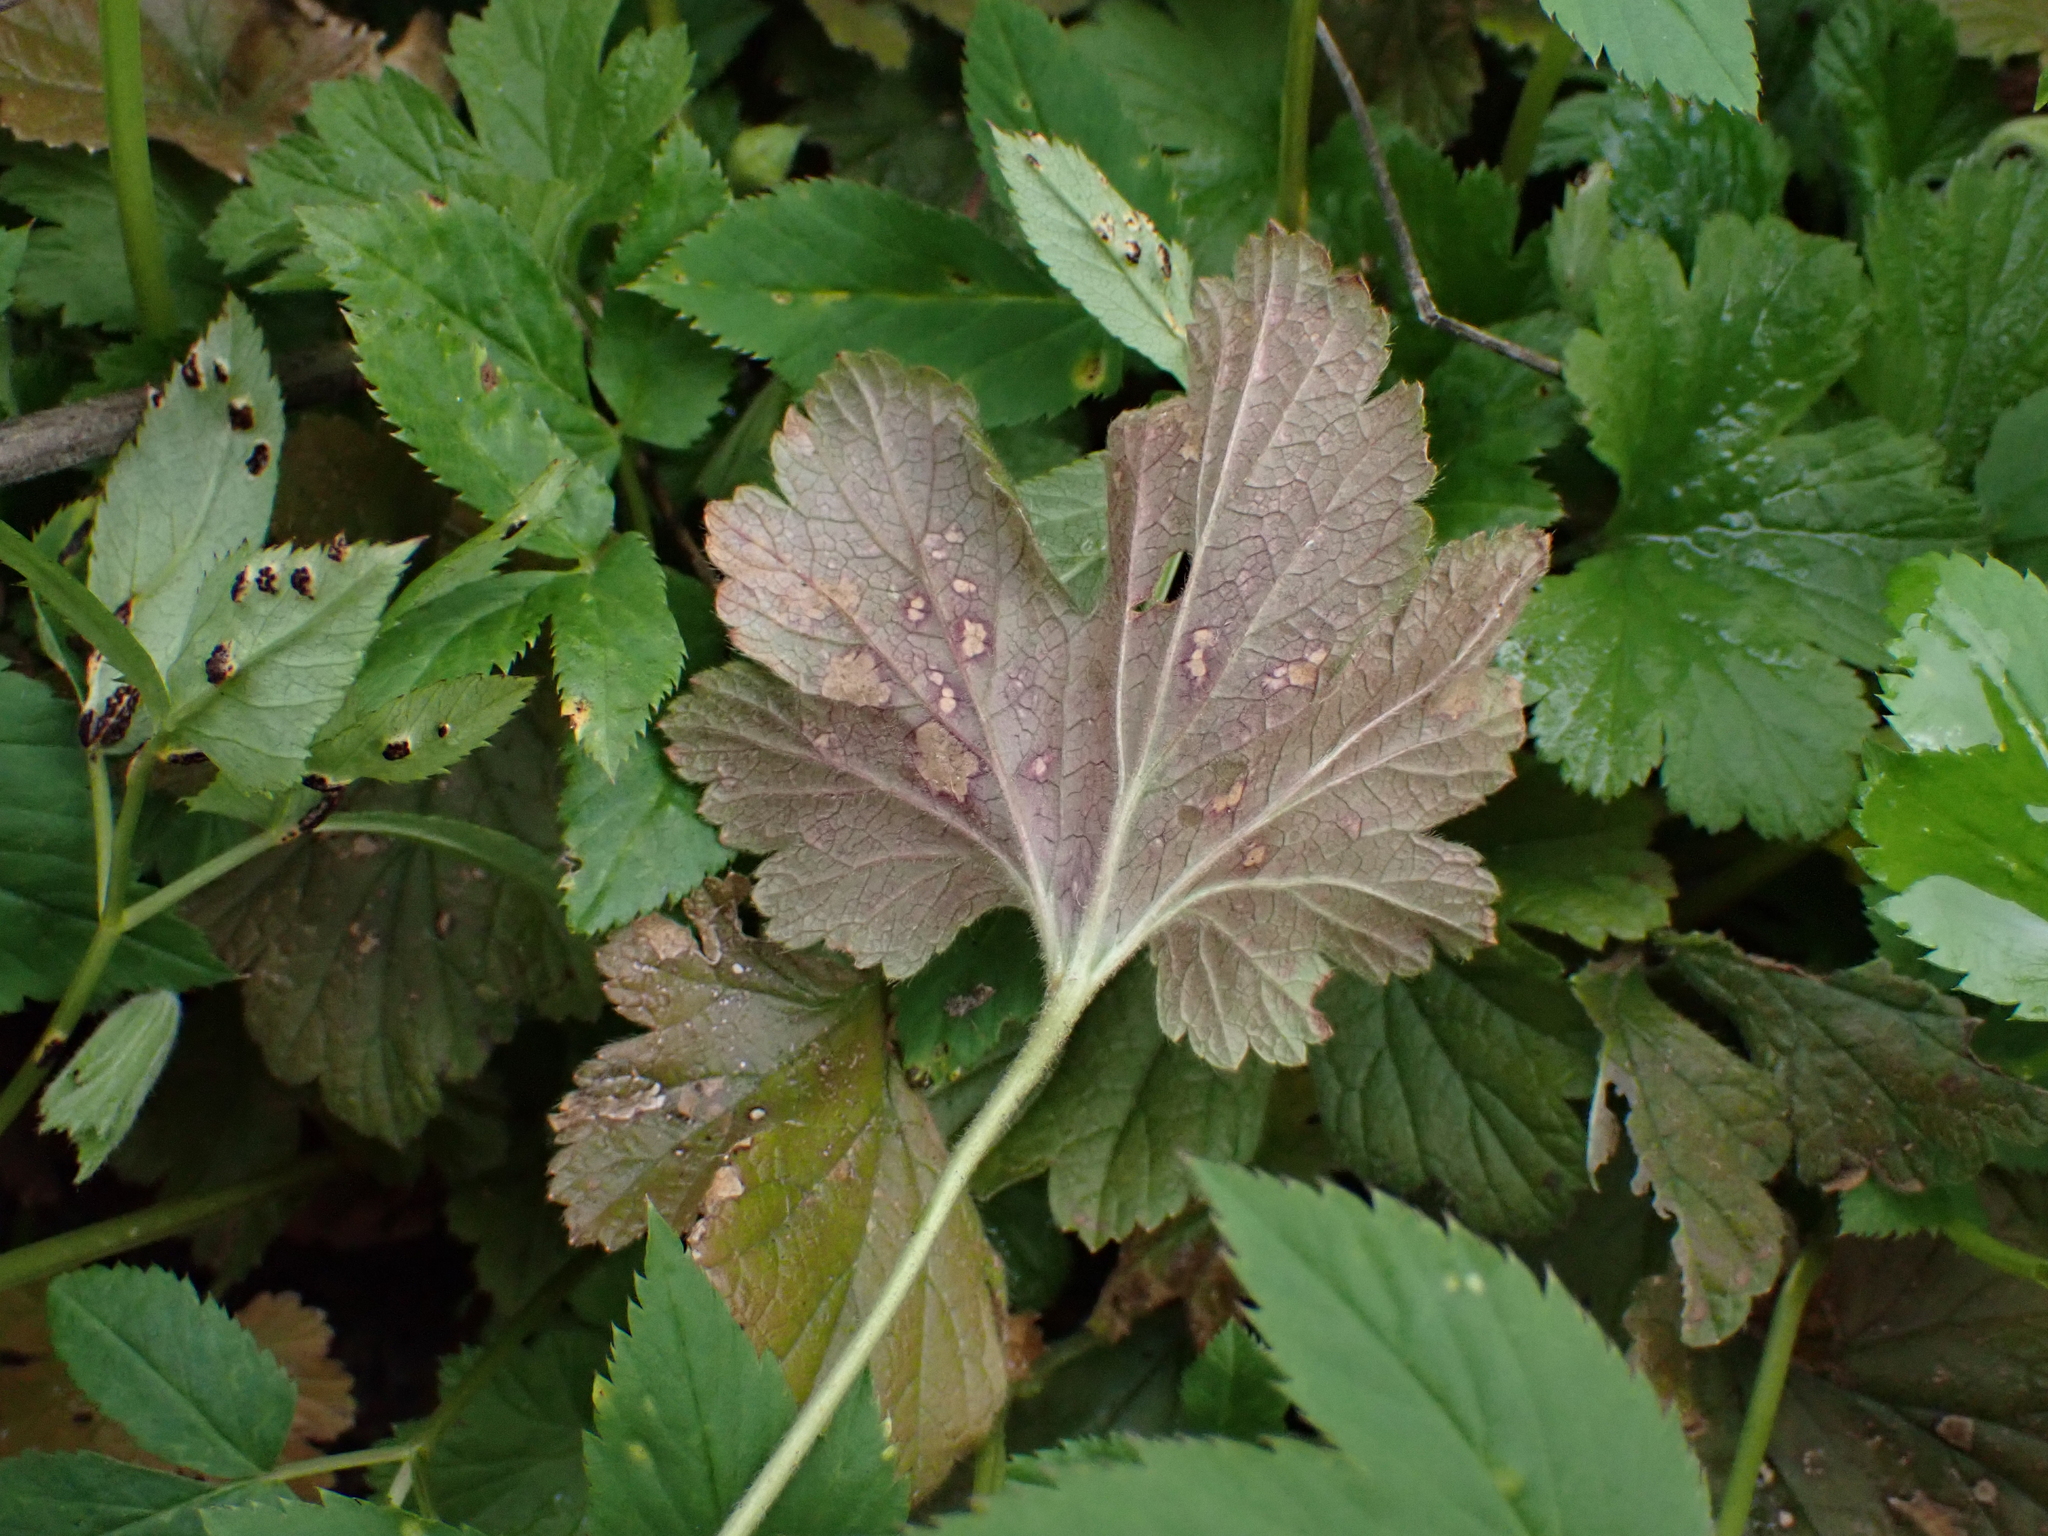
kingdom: Fungi
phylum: Ascomycota
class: Dothideomycetes
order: Mycosphaerellales
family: Mycosphaerellaceae
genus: Sphaerulina
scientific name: Sphaerulina gei
